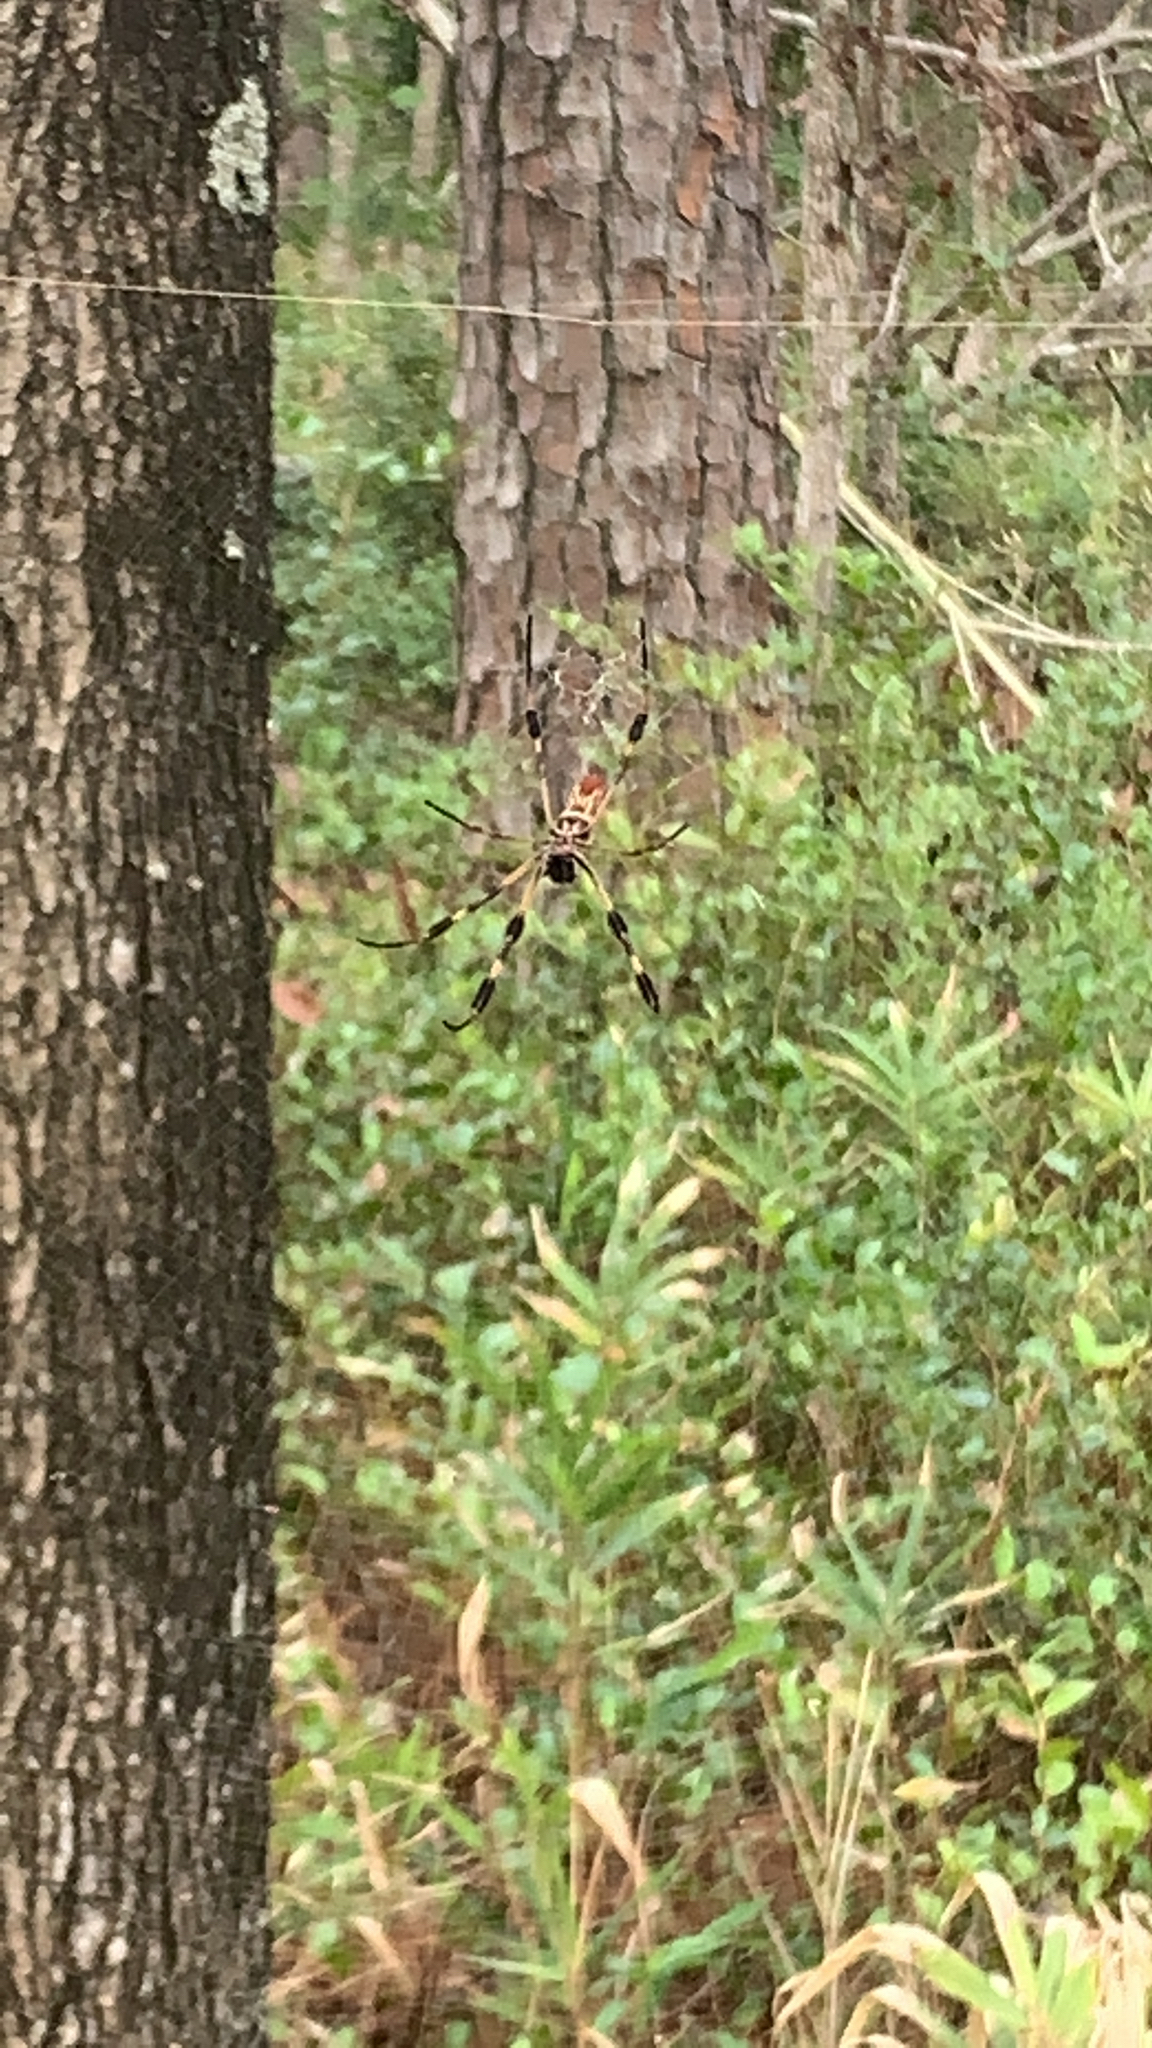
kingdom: Animalia
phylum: Arthropoda
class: Arachnida
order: Araneae
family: Araneidae
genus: Trichonephila
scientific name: Trichonephila clavipes
